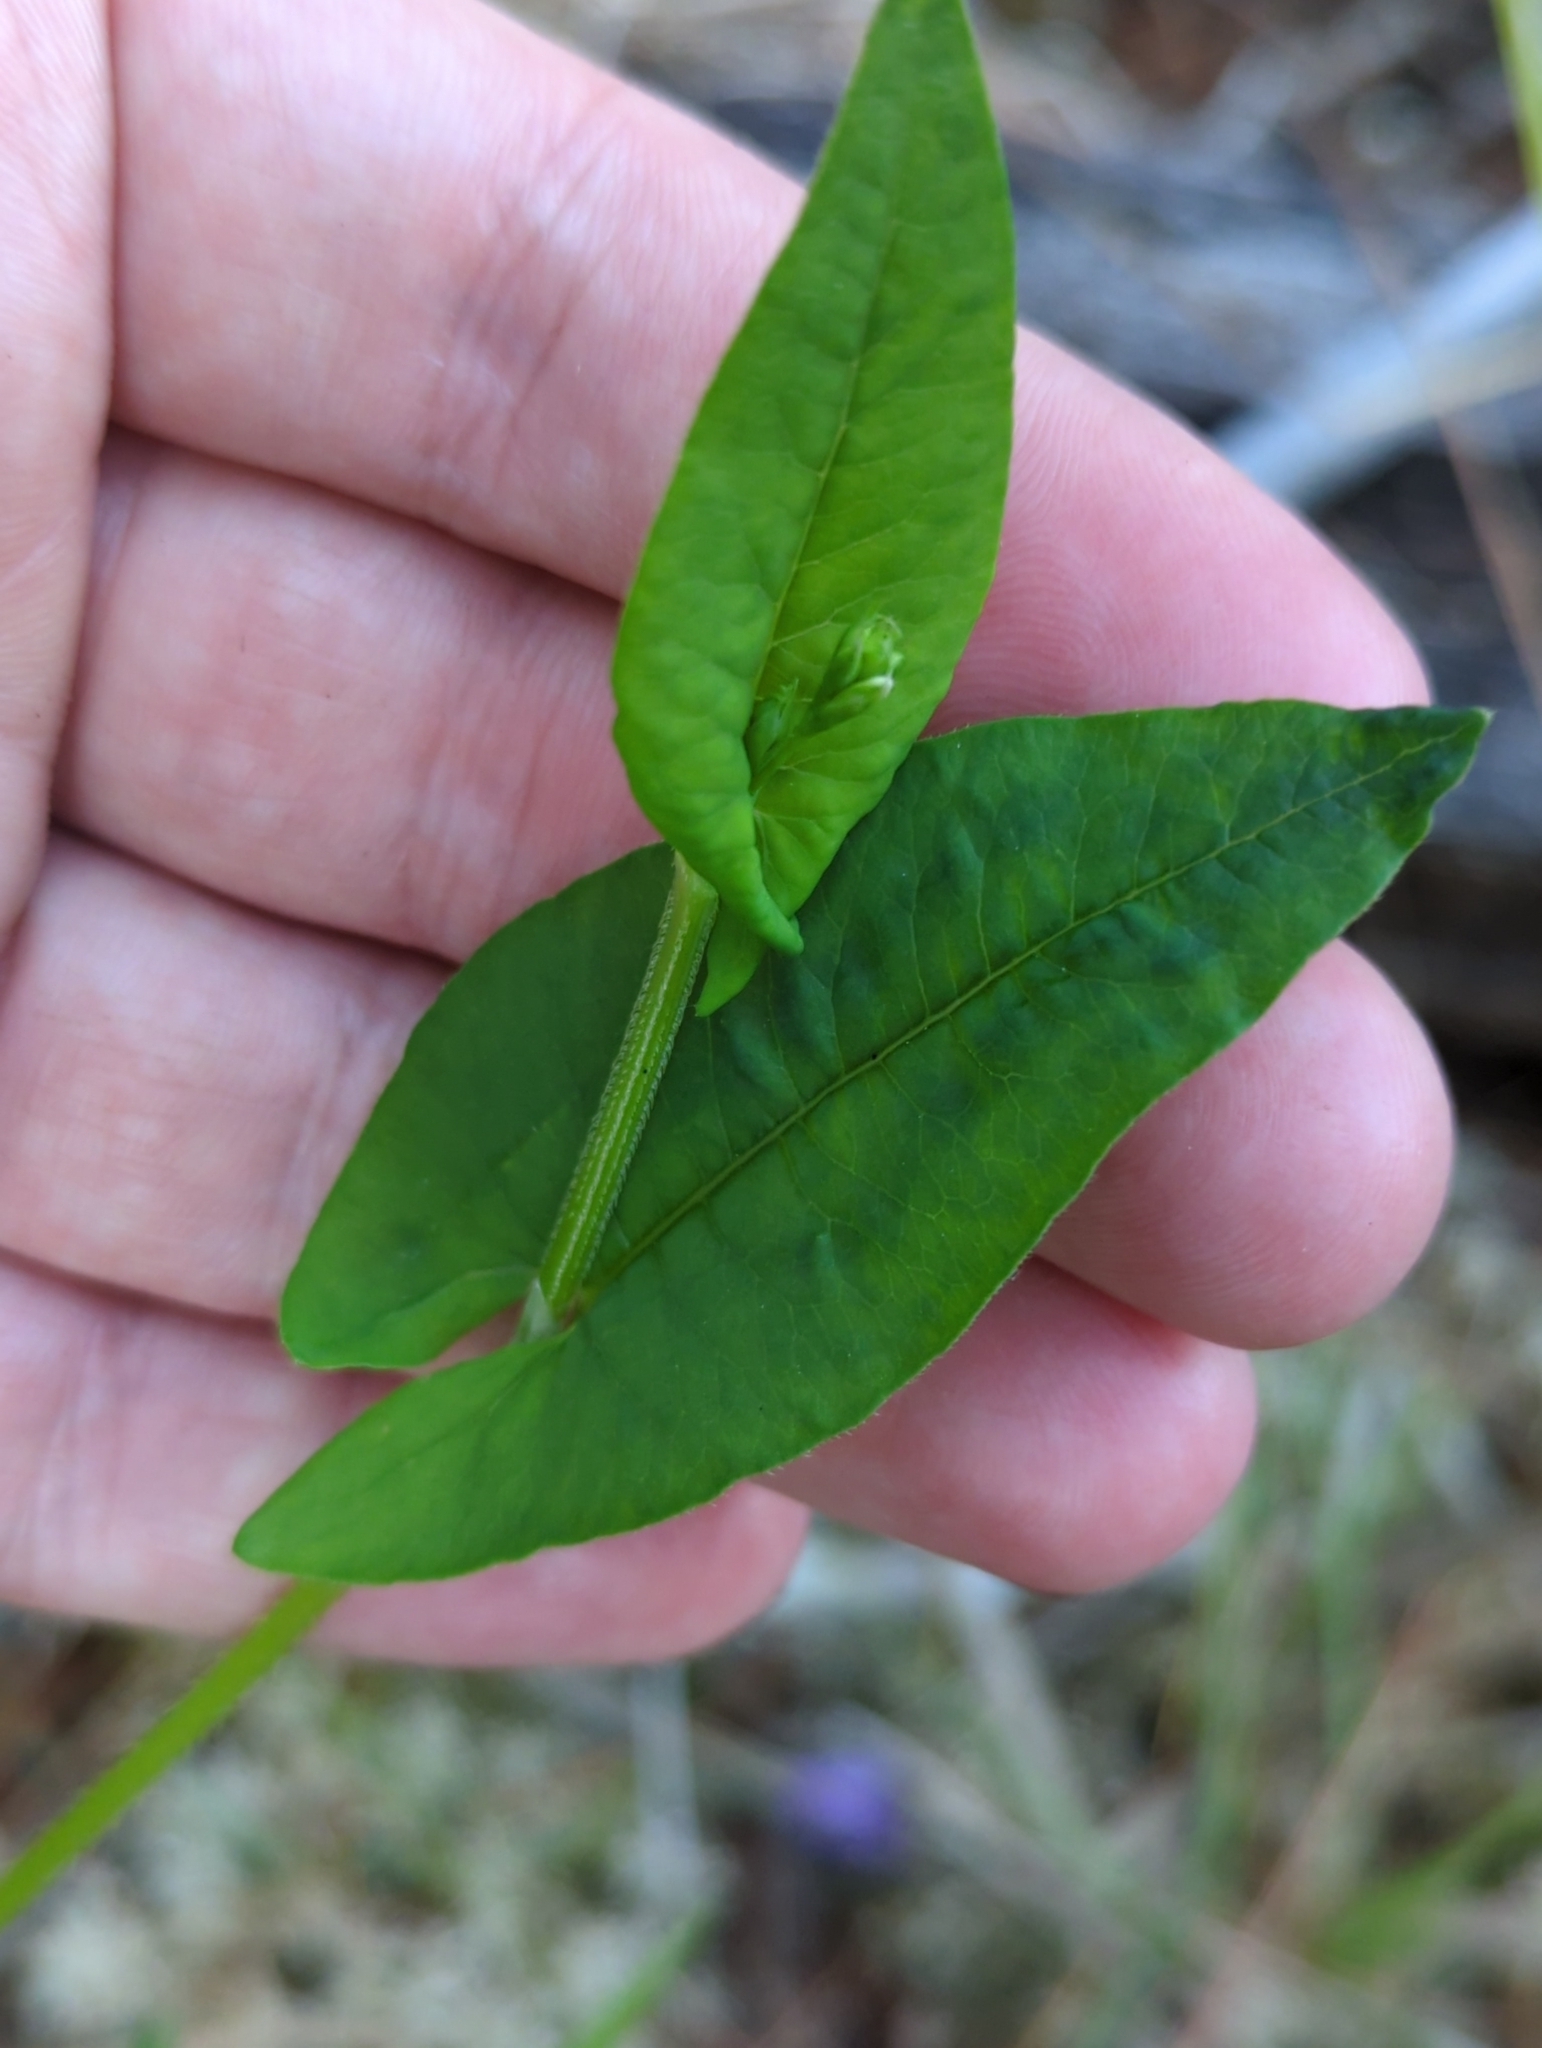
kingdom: Plantae
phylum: Tracheophyta
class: Magnoliopsida
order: Caryophyllales
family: Polygonaceae
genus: Persicaria
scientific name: Persicaria sagittata
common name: American tearthumb
